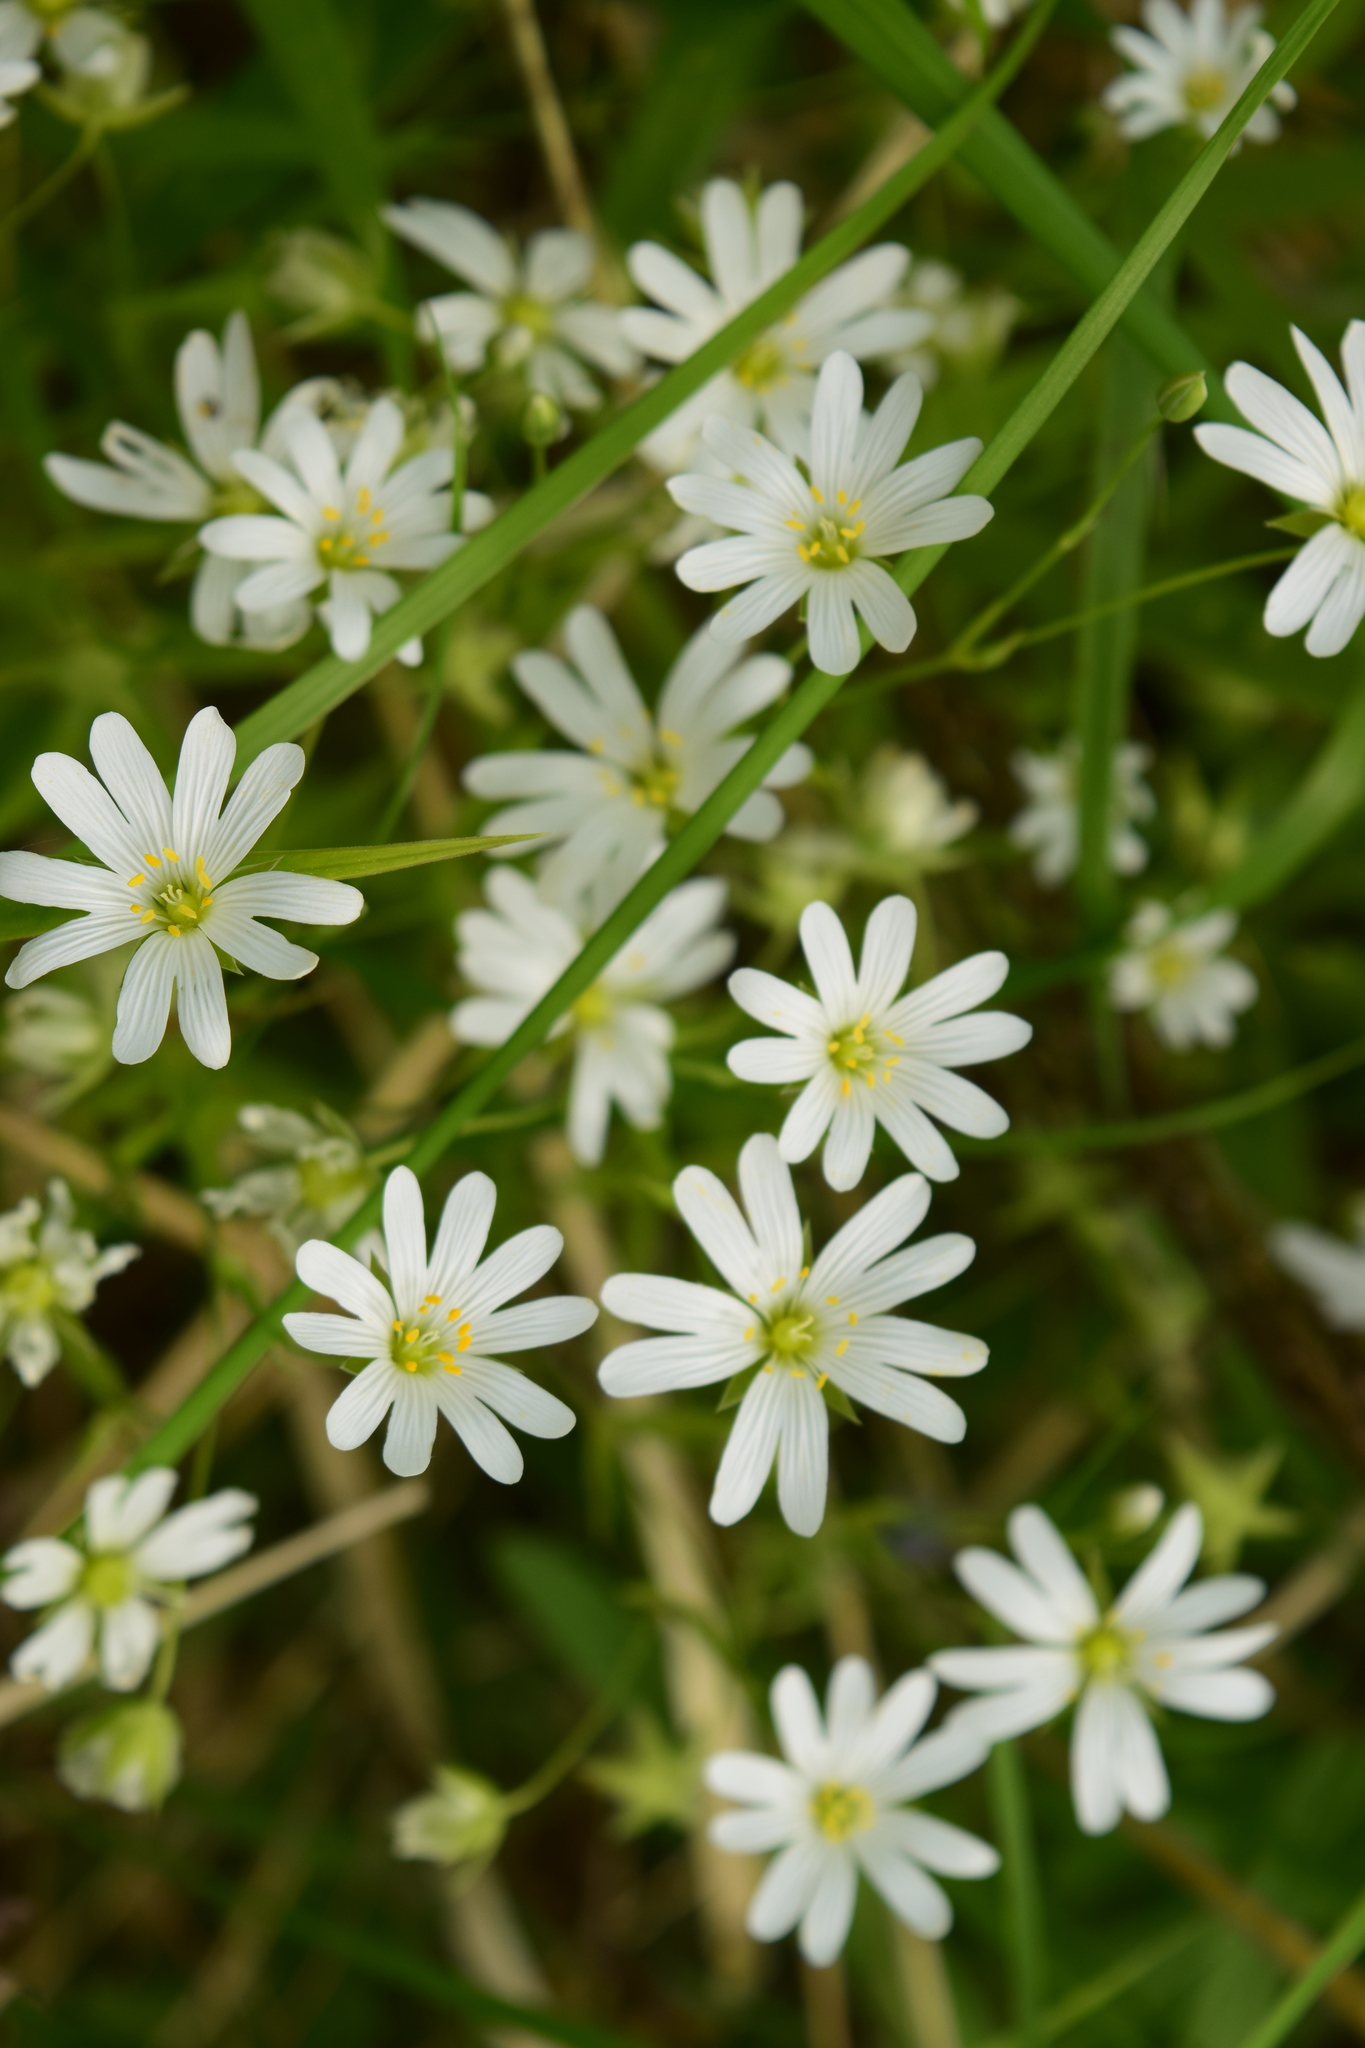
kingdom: Plantae
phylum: Tracheophyta
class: Magnoliopsida
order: Caryophyllales
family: Caryophyllaceae
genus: Rabelera
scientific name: Rabelera holostea
